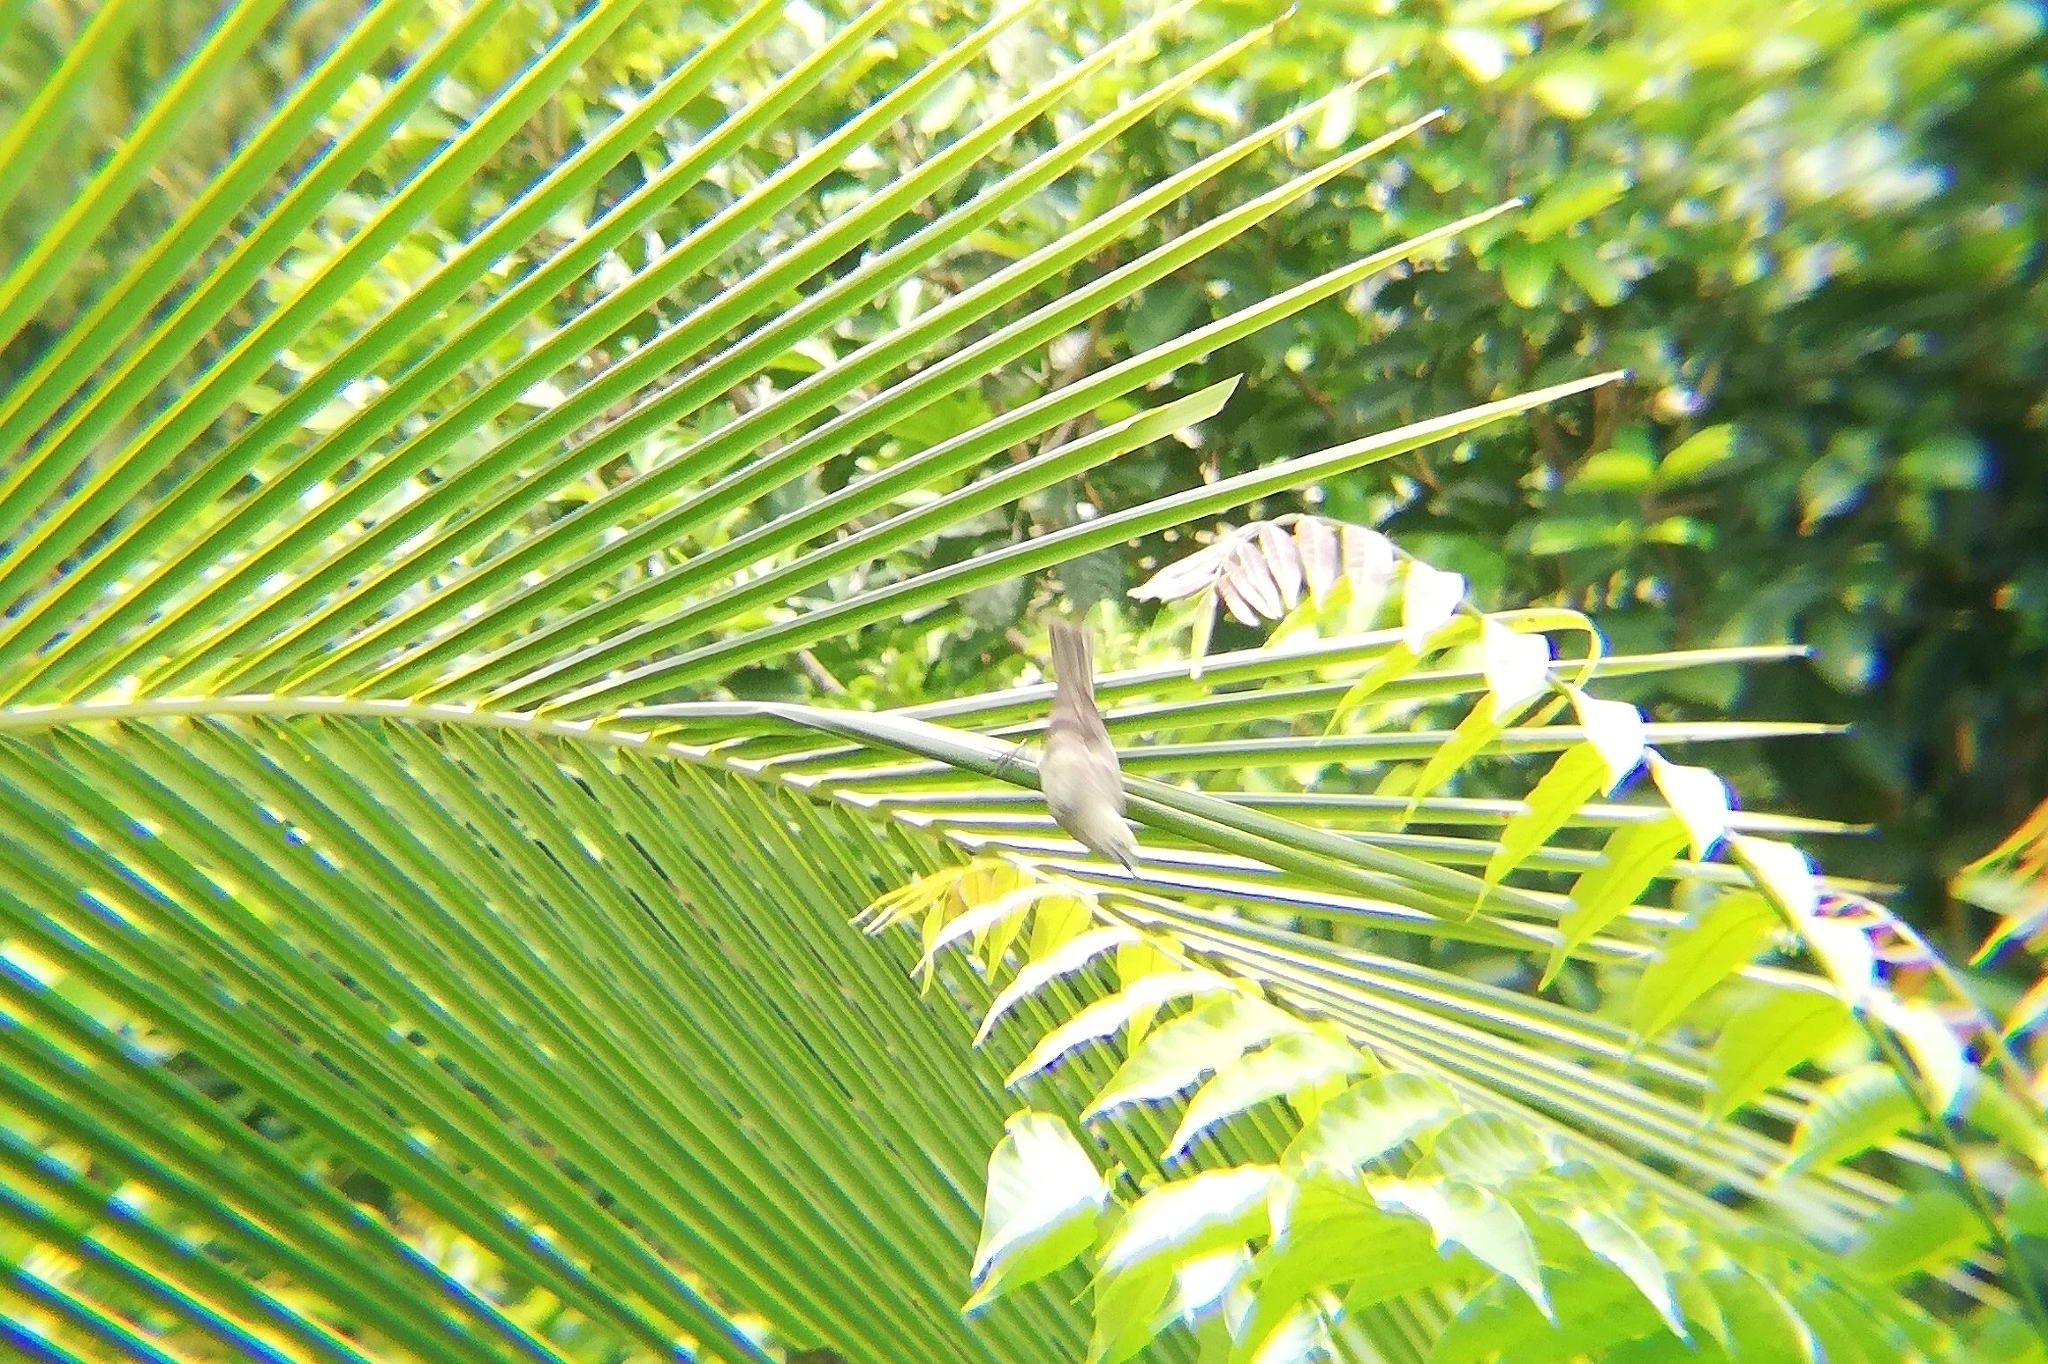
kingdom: Animalia
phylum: Chordata
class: Aves
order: Passeriformes
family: Thraupidae
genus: Thraupis
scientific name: Thraupis palmarum
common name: Palm tanager
